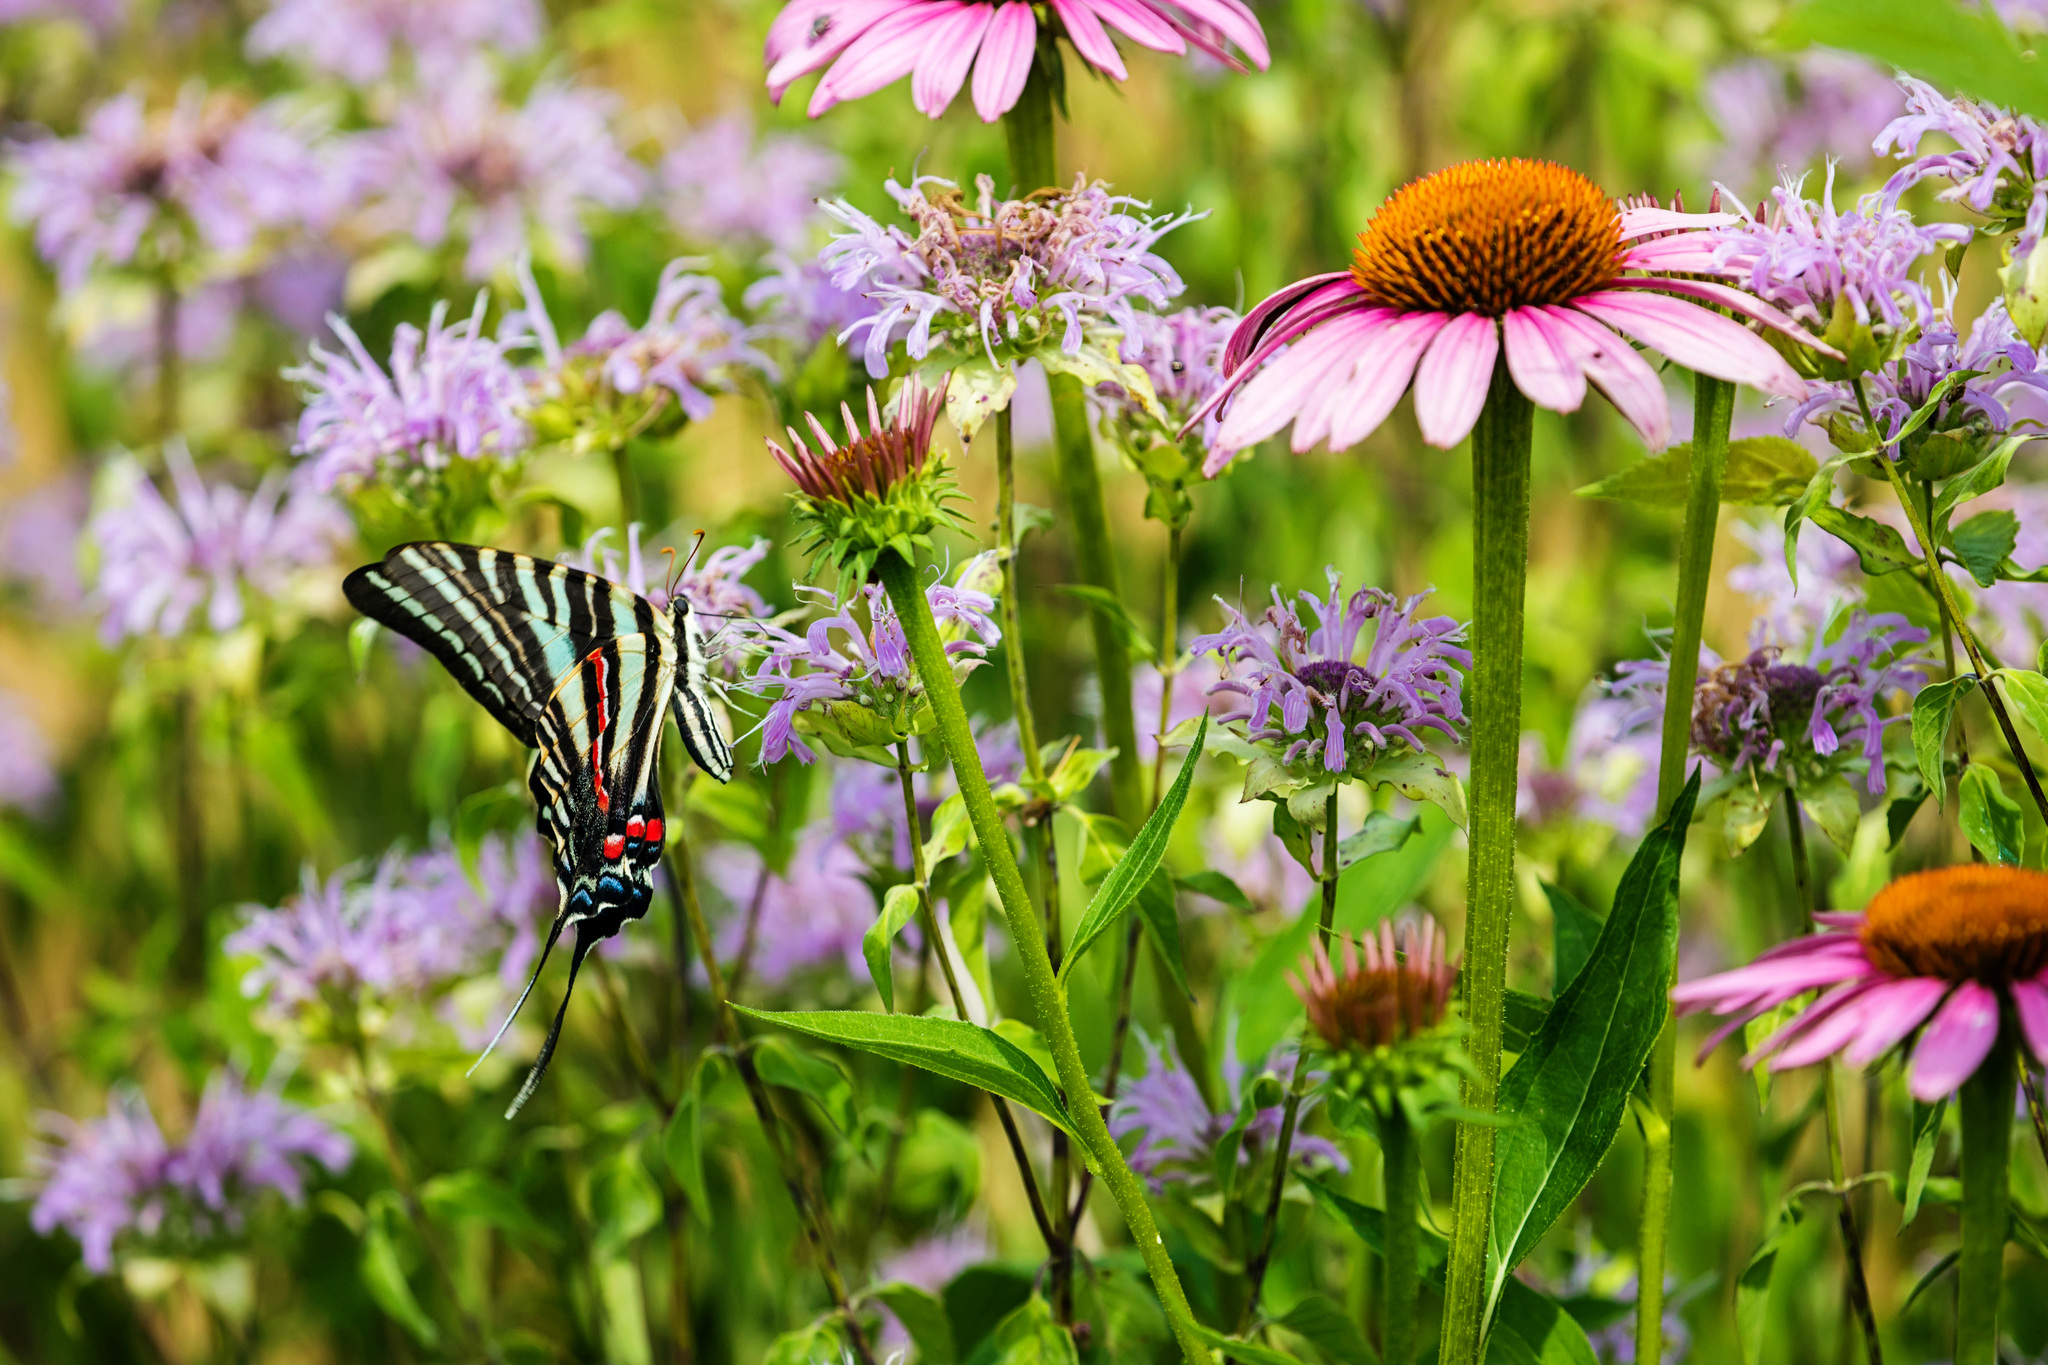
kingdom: Animalia
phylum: Arthropoda
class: Insecta
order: Lepidoptera
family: Papilionidae
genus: Protographium
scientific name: Protographium marcellus
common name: Zebra swallowtail
